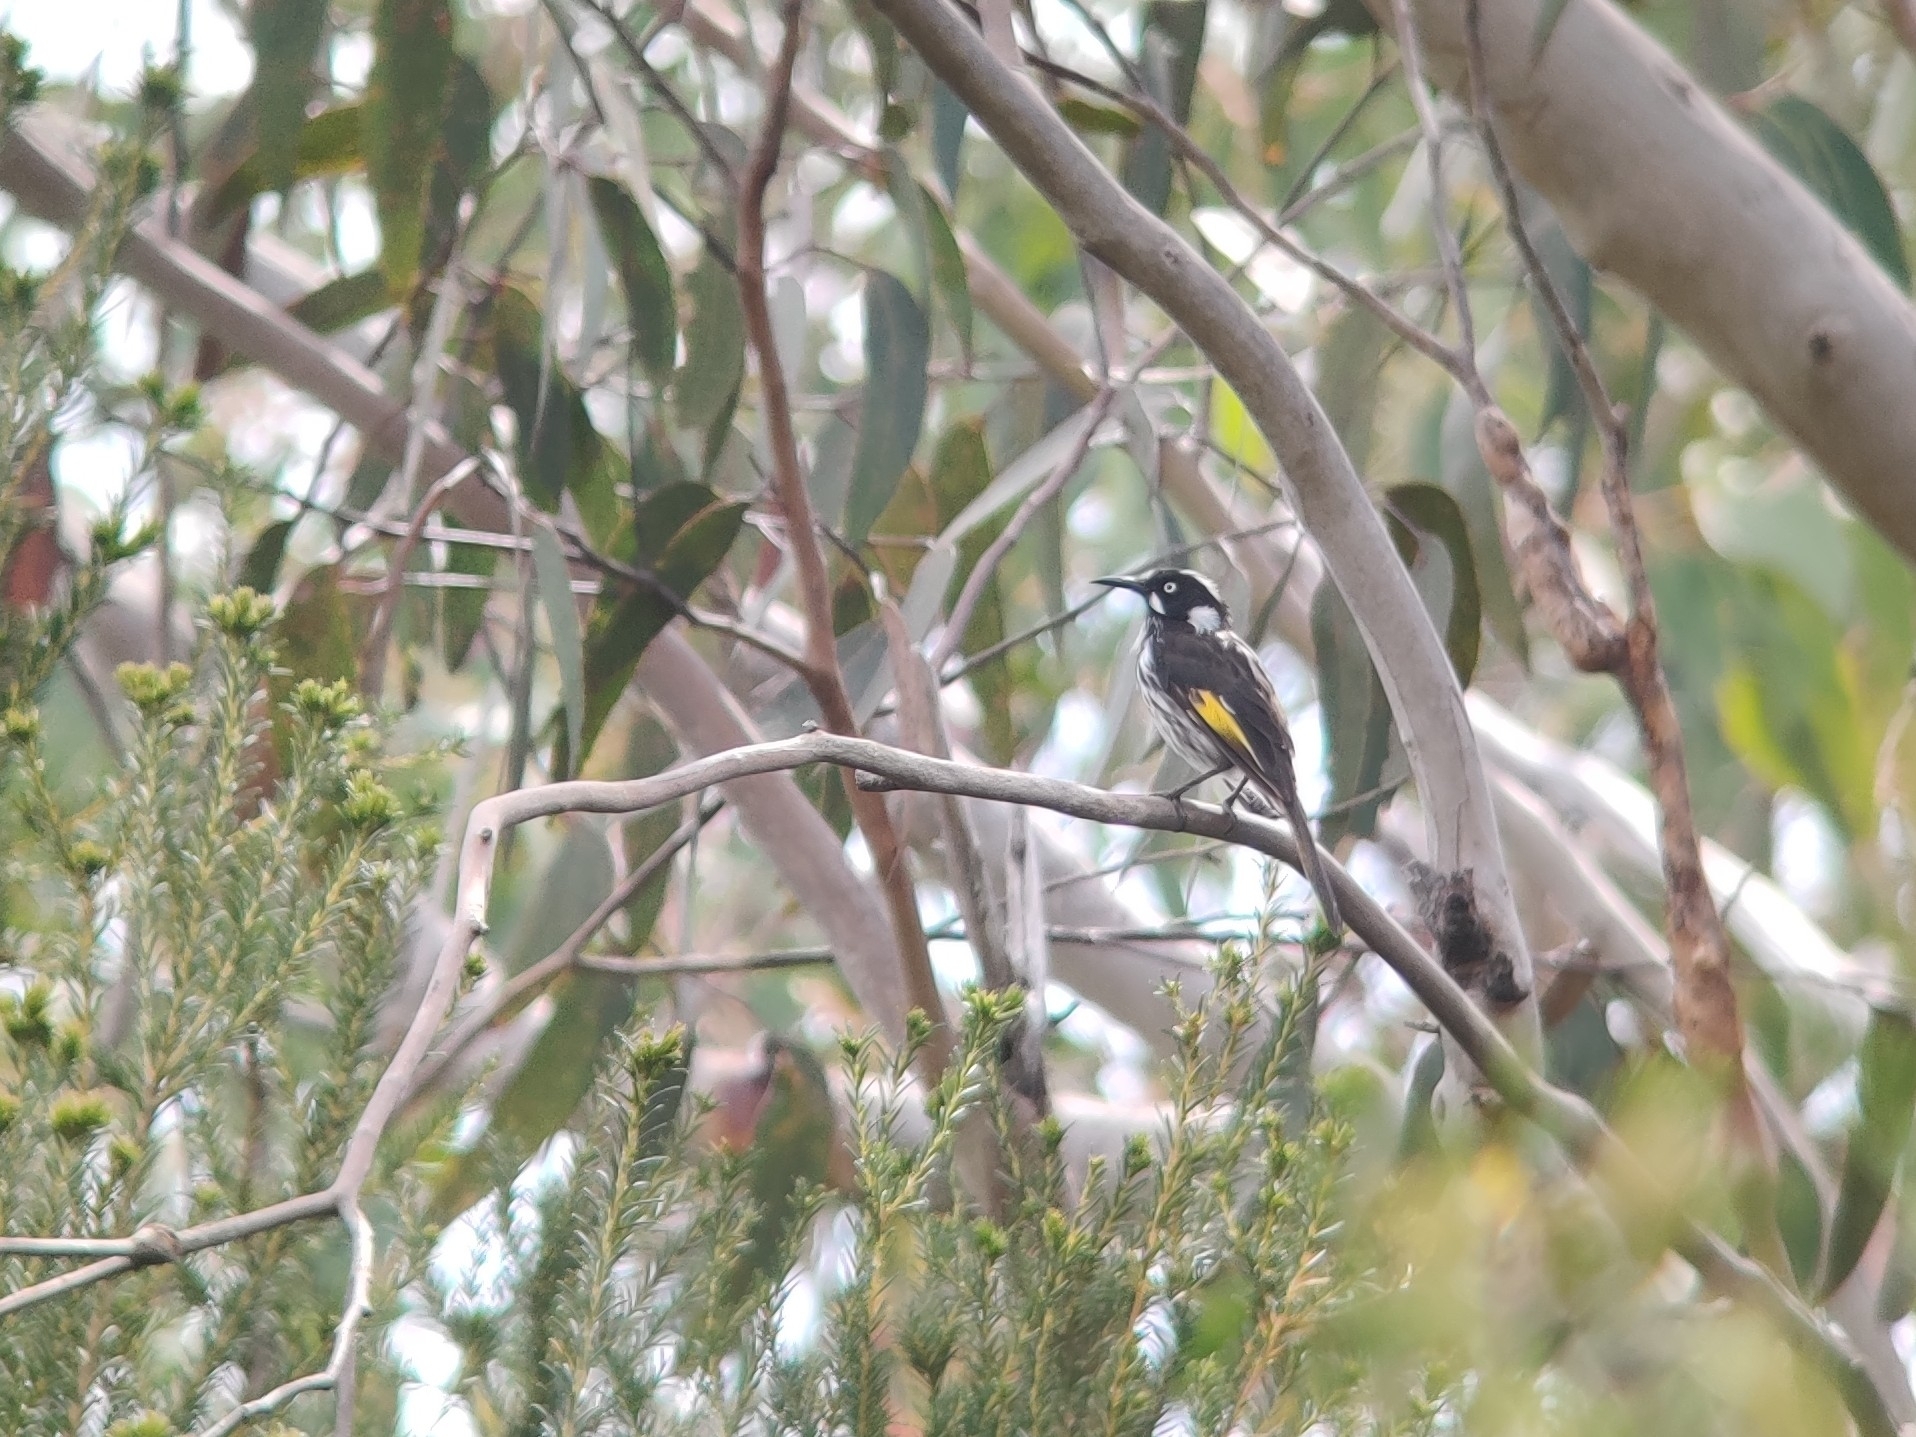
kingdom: Animalia
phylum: Chordata
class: Aves
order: Passeriformes
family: Meliphagidae
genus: Phylidonyris
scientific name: Phylidonyris novaehollandiae
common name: New holland honeyeater
